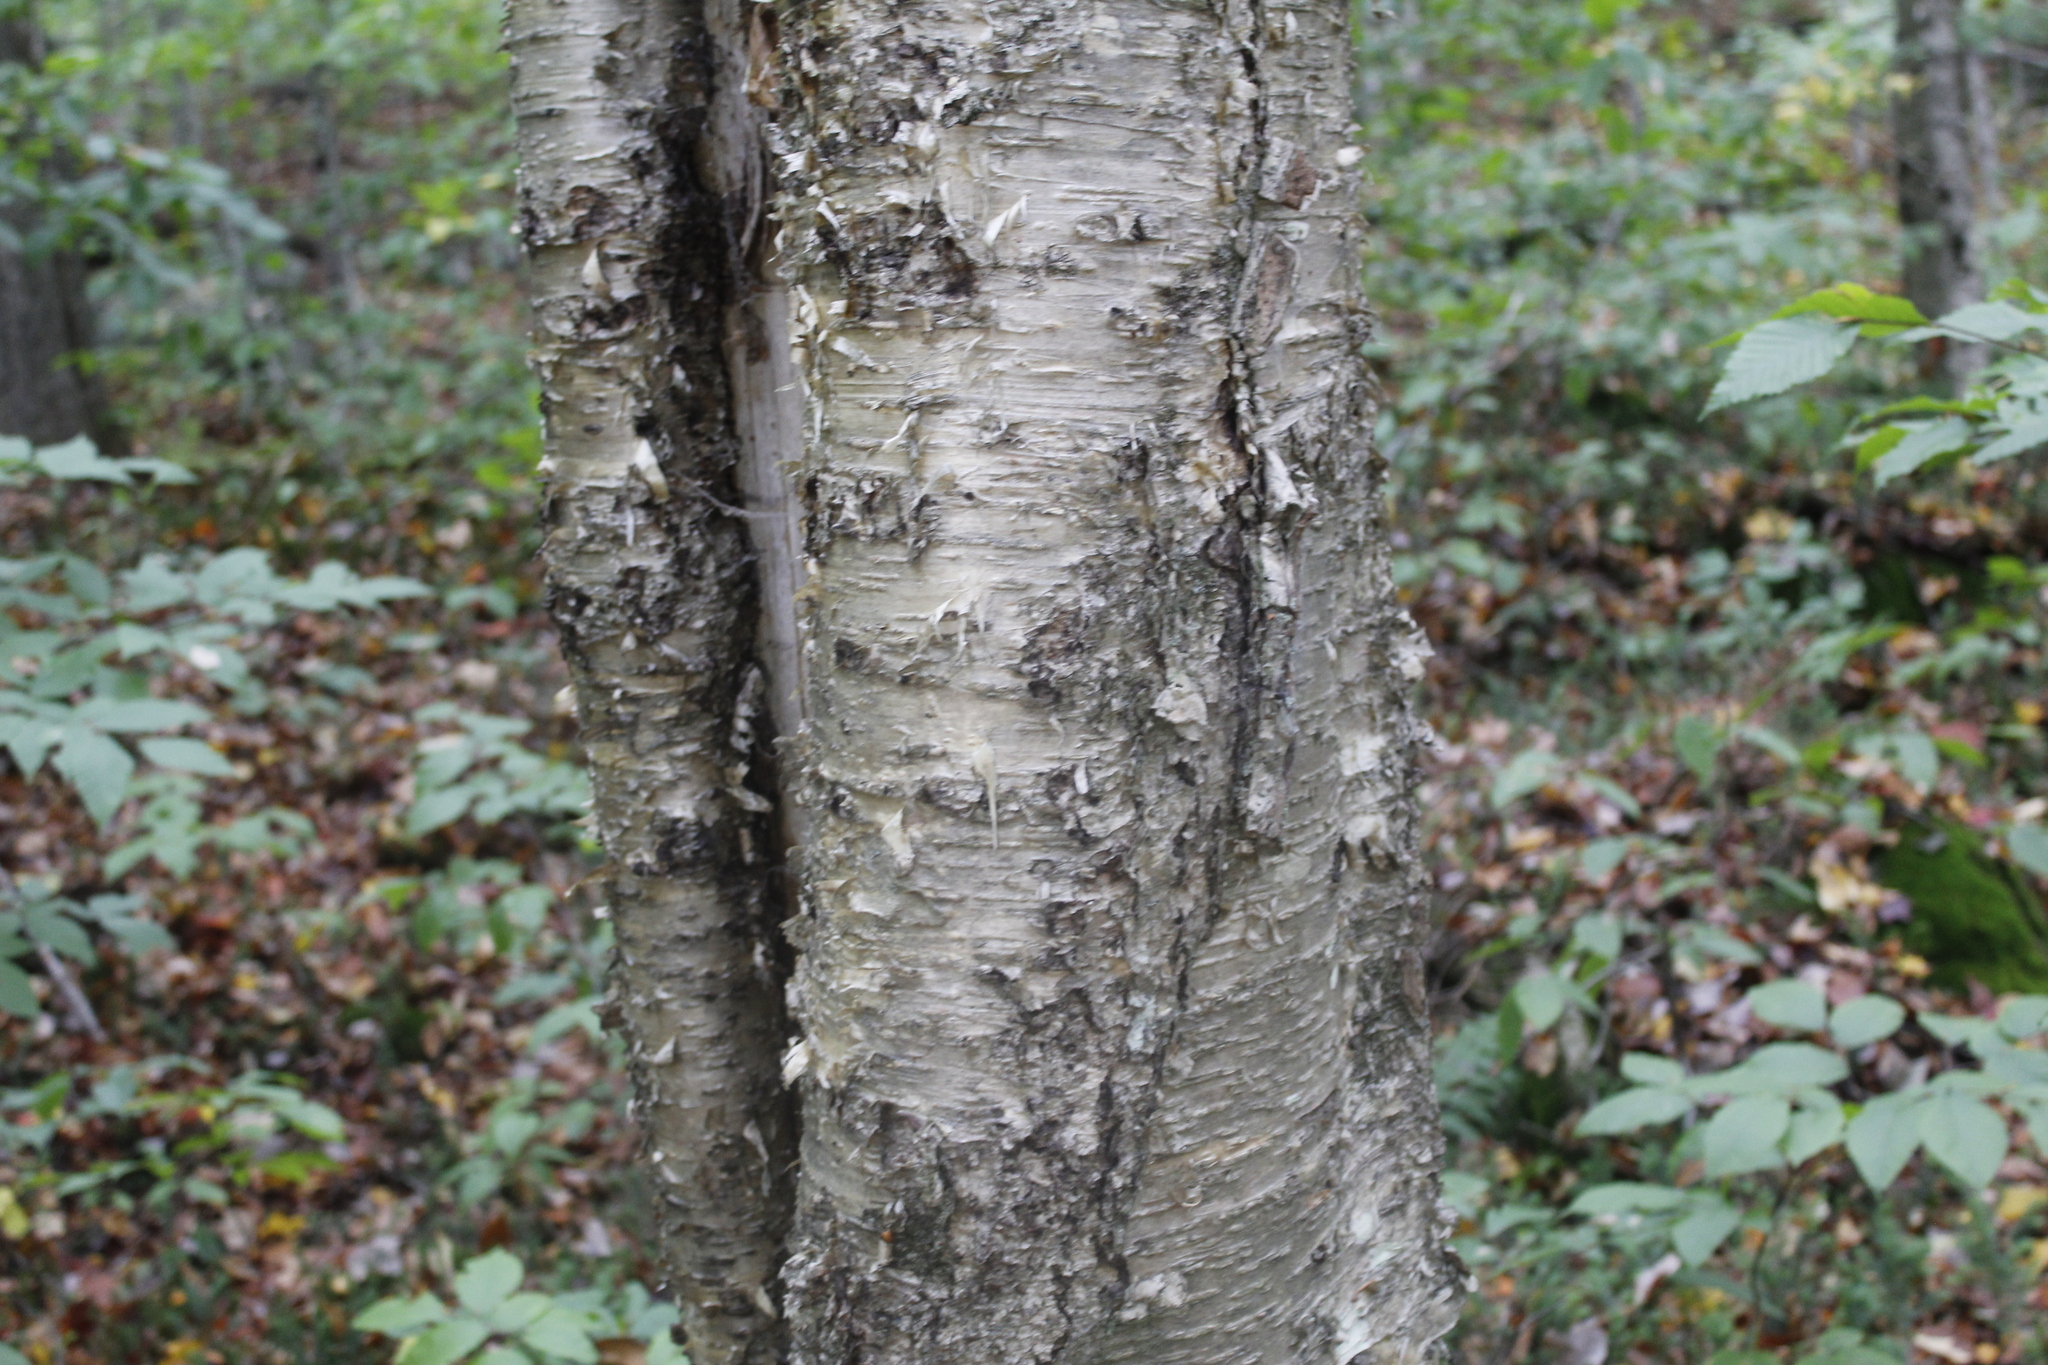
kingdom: Plantae
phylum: Tracheophyta
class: Magnoliopsida
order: Fagales
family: Betulaceae
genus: Betula
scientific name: Betula alleghaniensis
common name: Yellow birch
